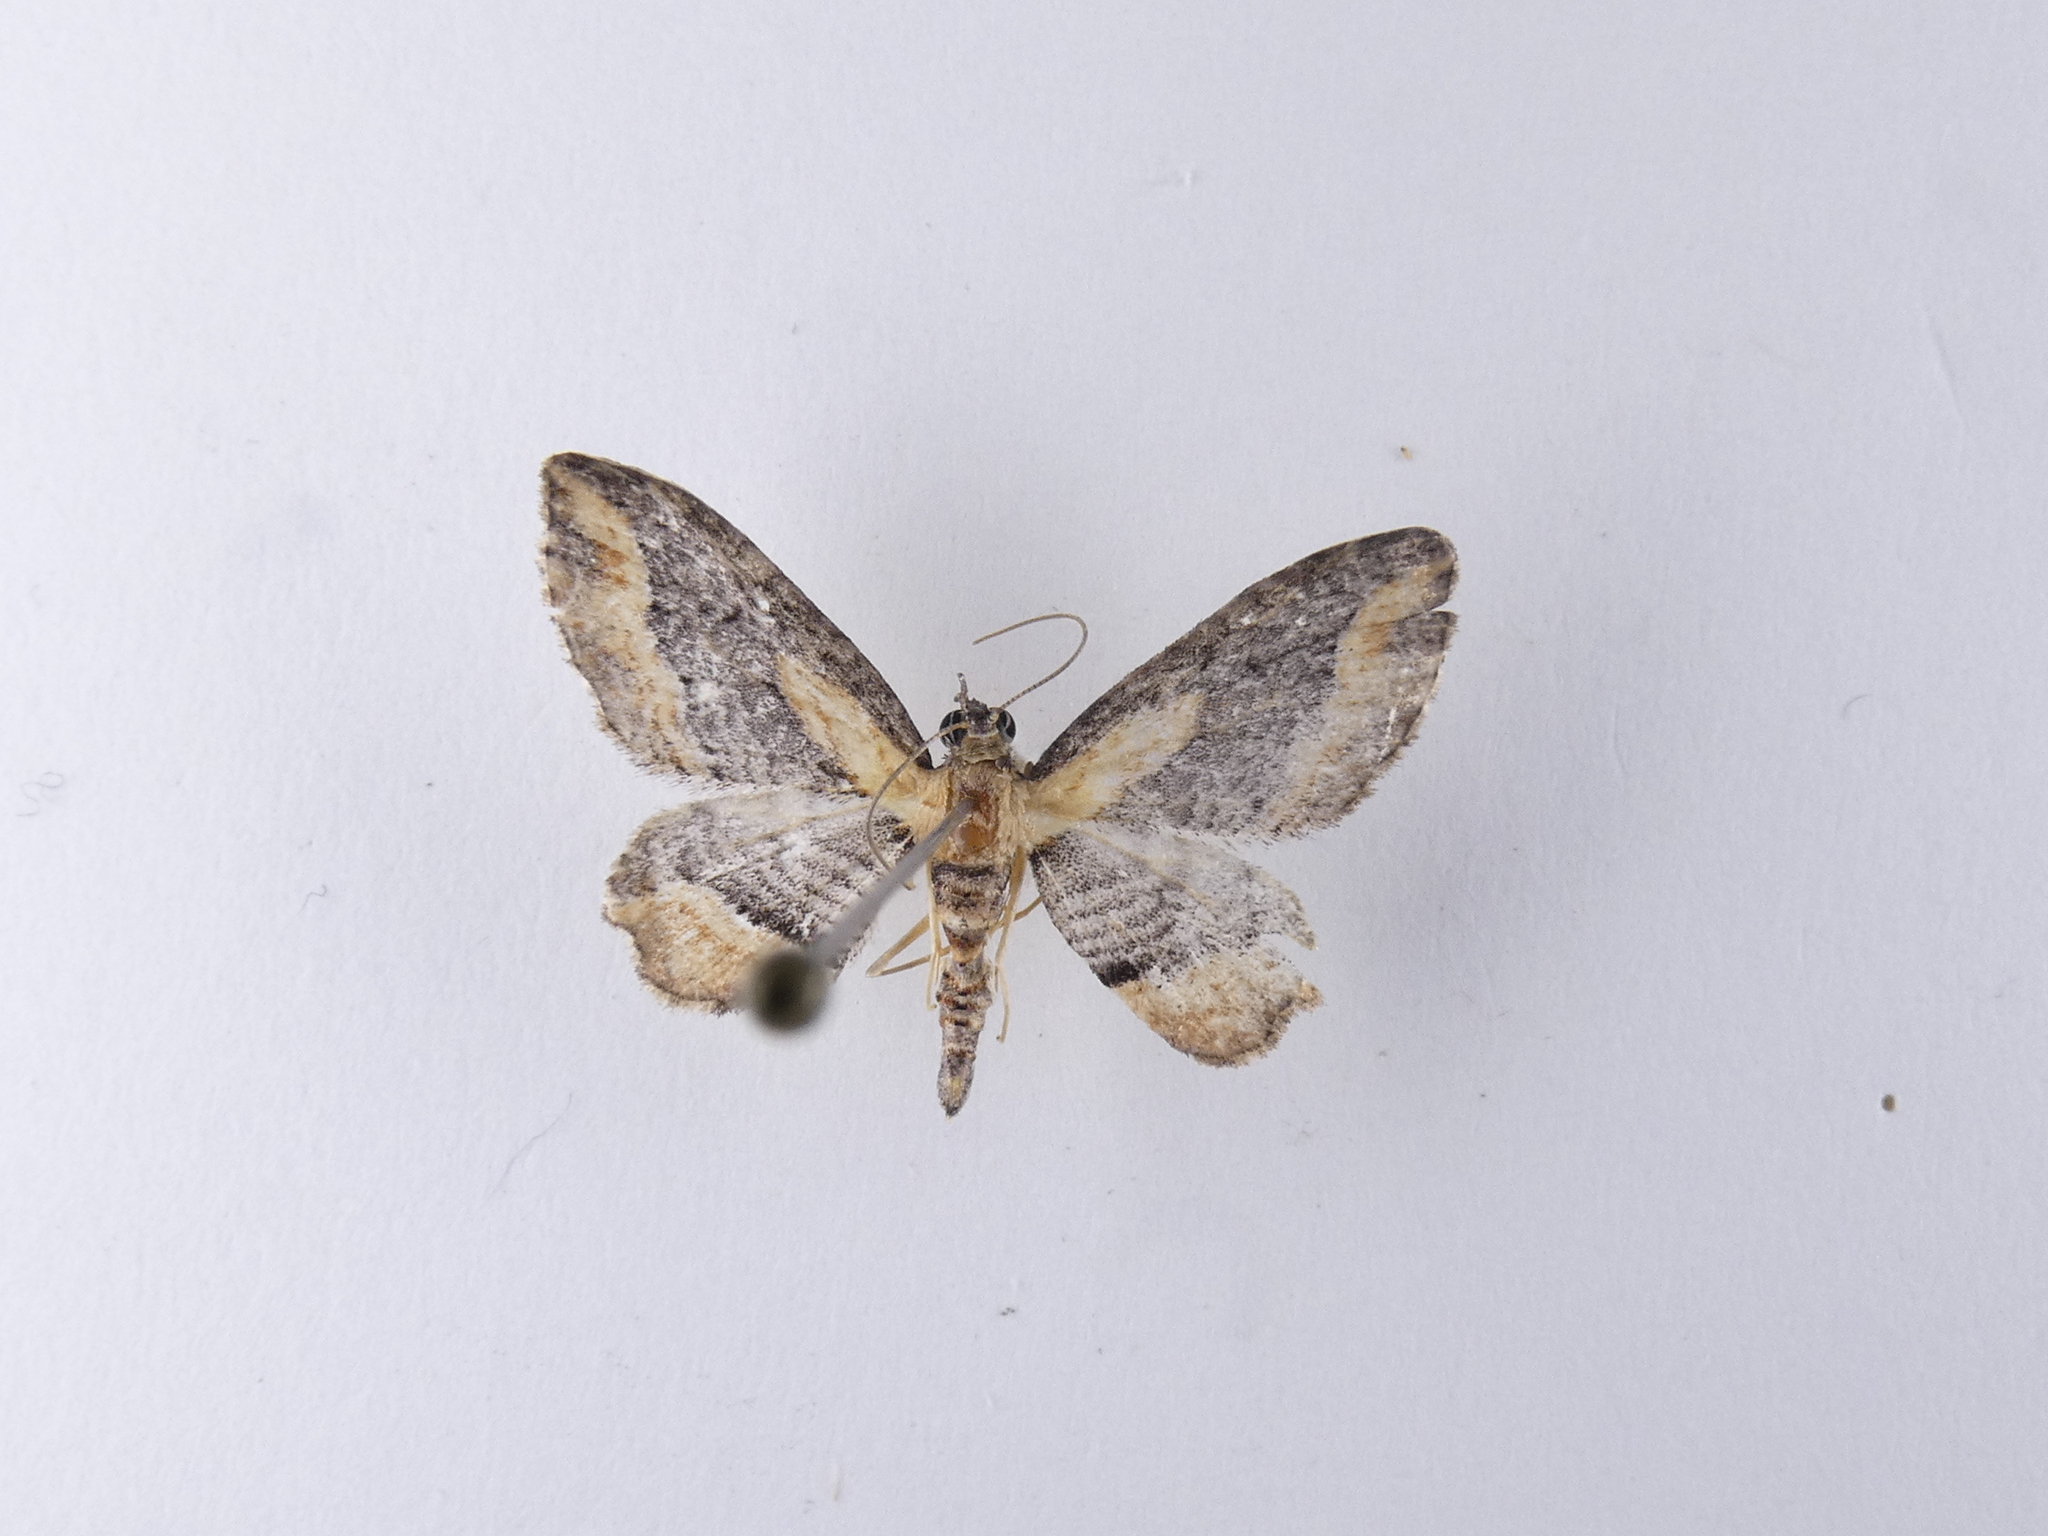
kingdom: Animalia
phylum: Arthropoda
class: Insecta
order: Lepidoptera
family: Geometridae
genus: Chloroclystis
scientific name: Chloroclystis filata
